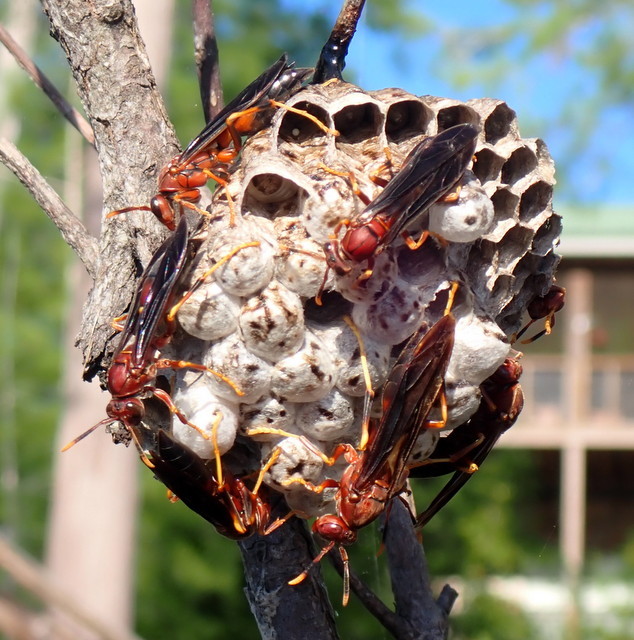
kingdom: Animalia
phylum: Arthropoda
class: Insecta
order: Hymenoptera
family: Eumenidae
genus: Polistes
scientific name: Polistes annularis
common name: Ringed paper wasp
